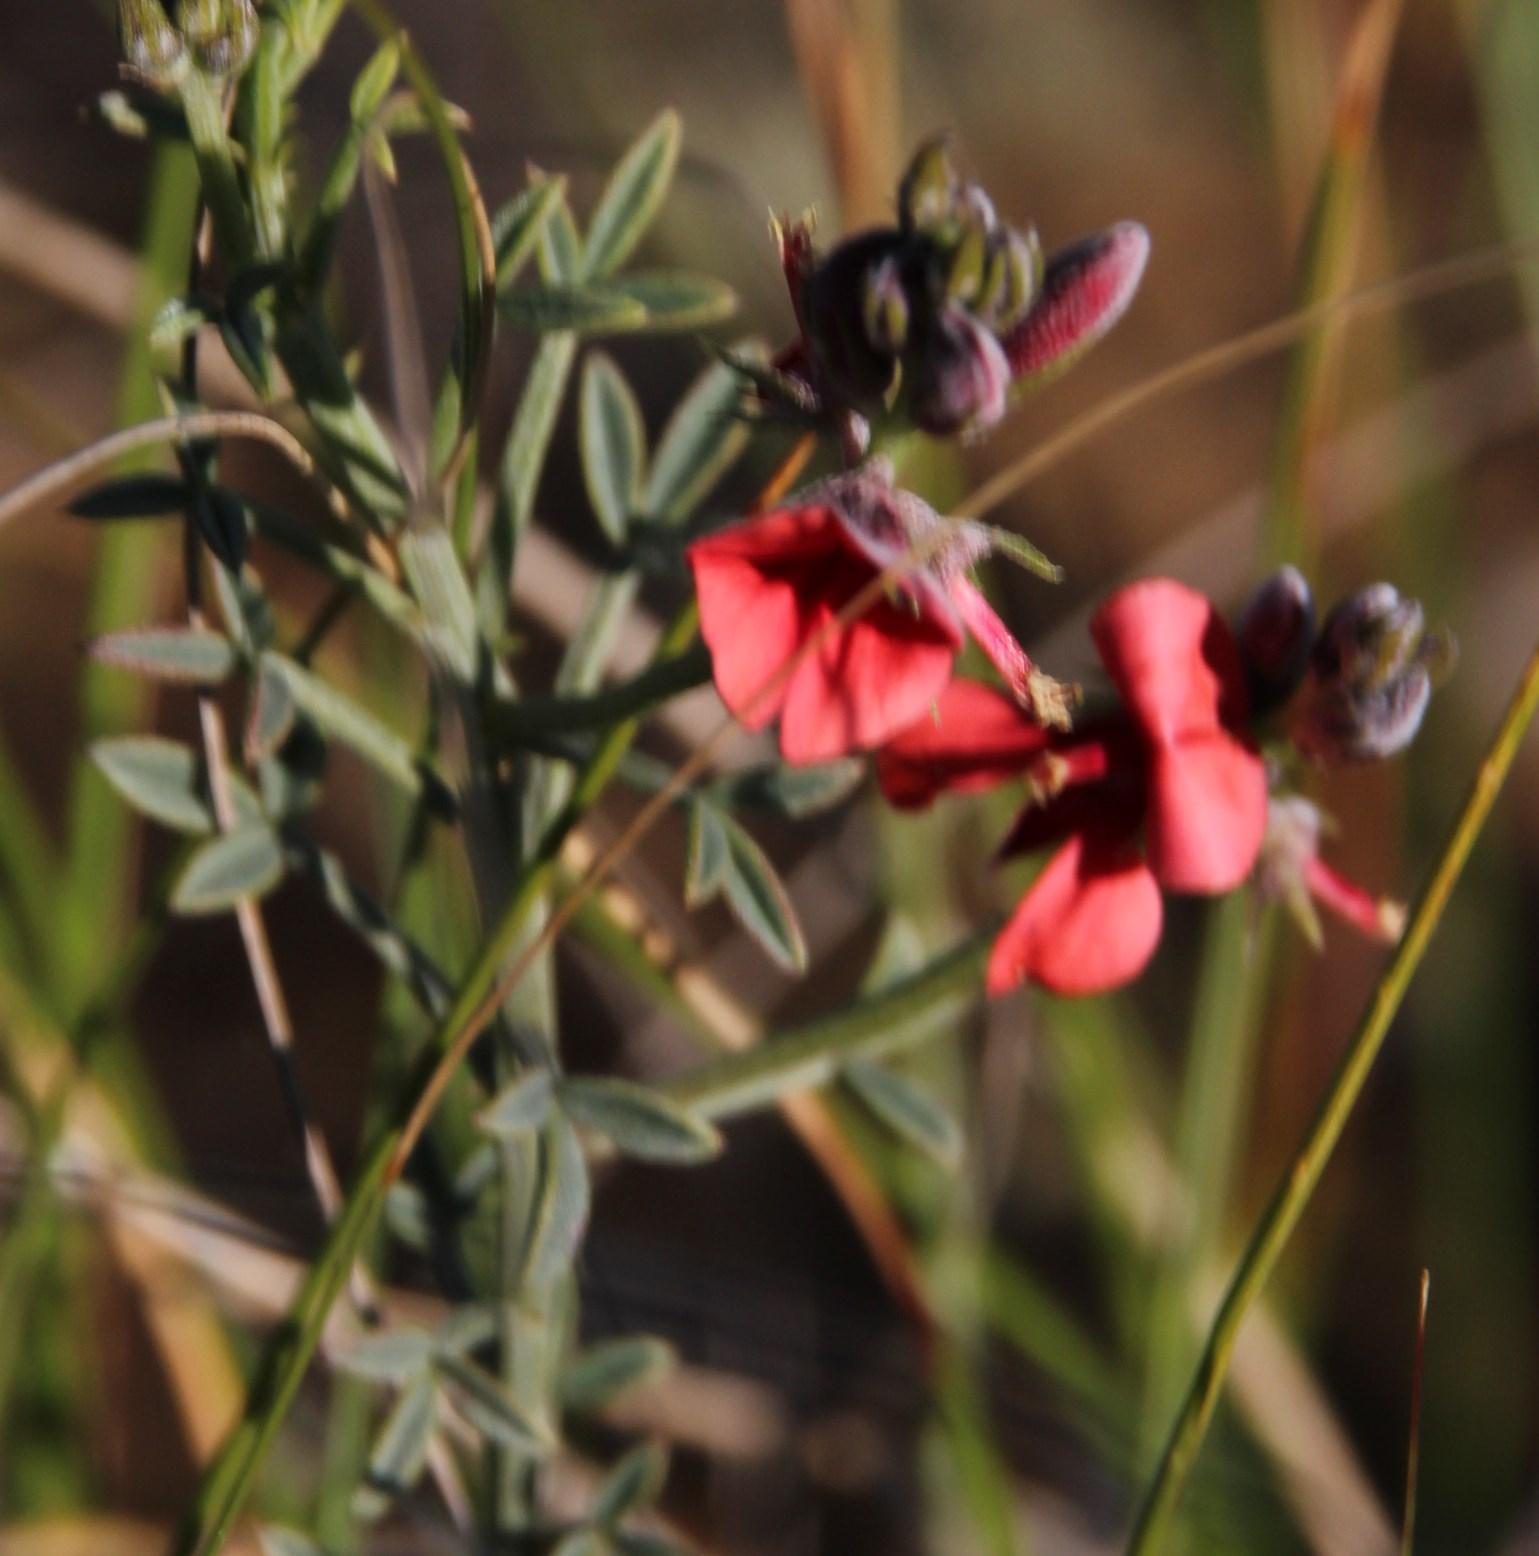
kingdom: Plantae
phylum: Tracheophyta
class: Magnoliopsida
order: Fabales
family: Fabaceae
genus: Indigofera
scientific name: Indigofera heterophylla
